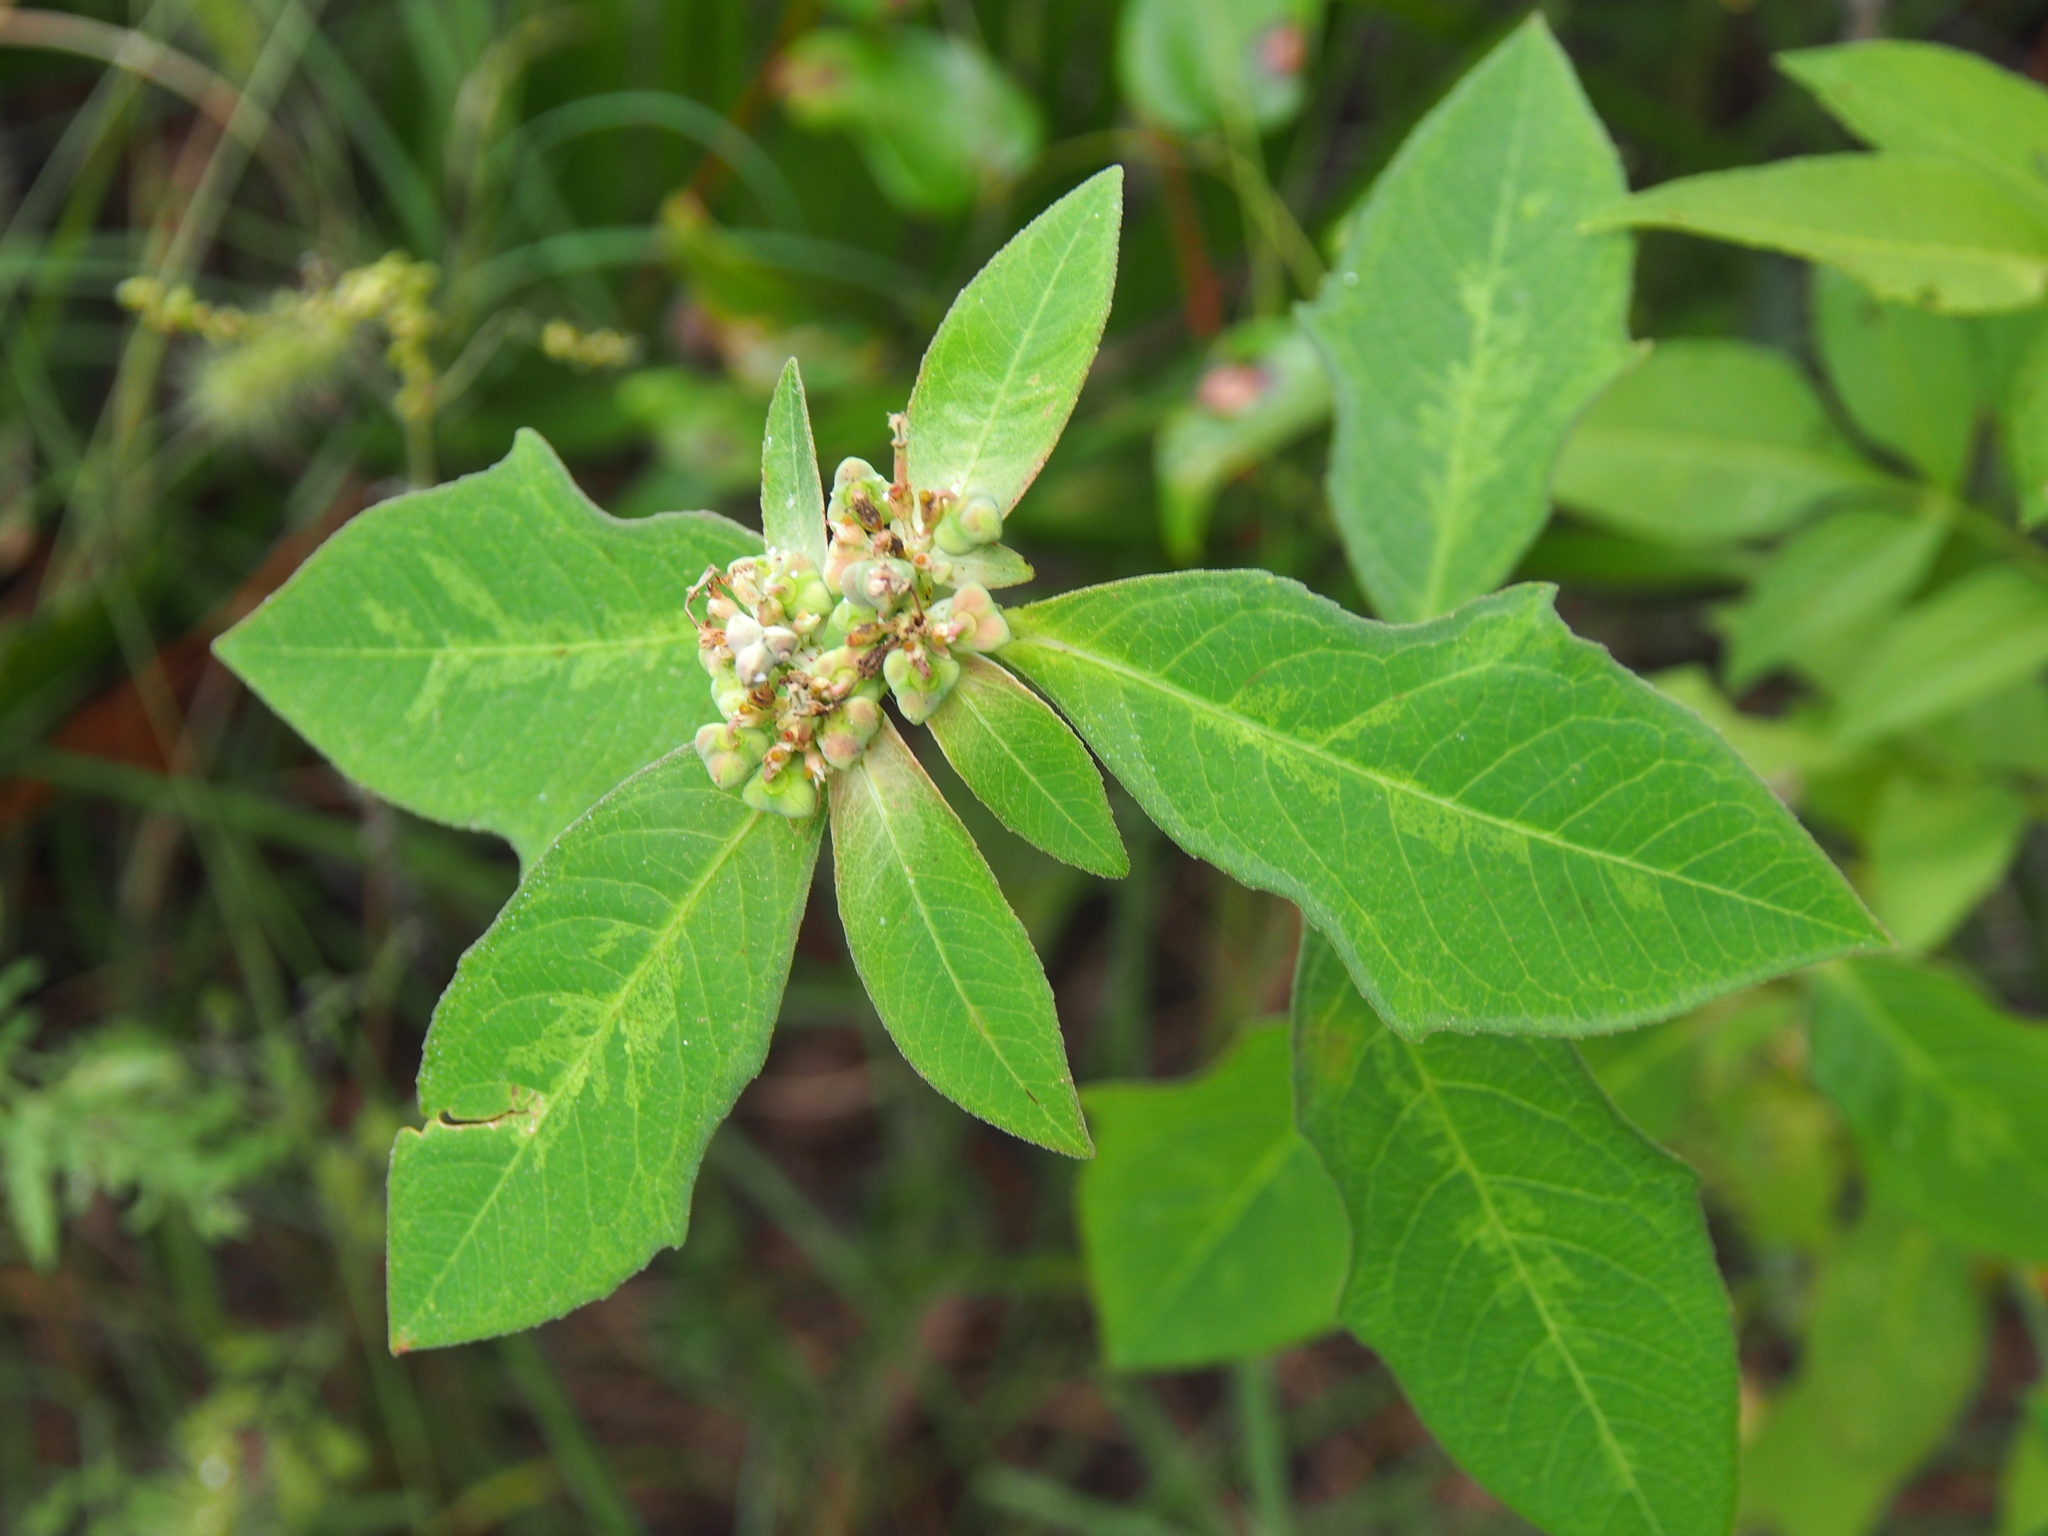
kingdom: Plantae
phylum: Tracheophyta
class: Magnoliopsida
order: Malpighiales
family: Euphorbiaceae
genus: Euphorbia
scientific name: Euphorbia heterophylla
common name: Mexican fireplant
